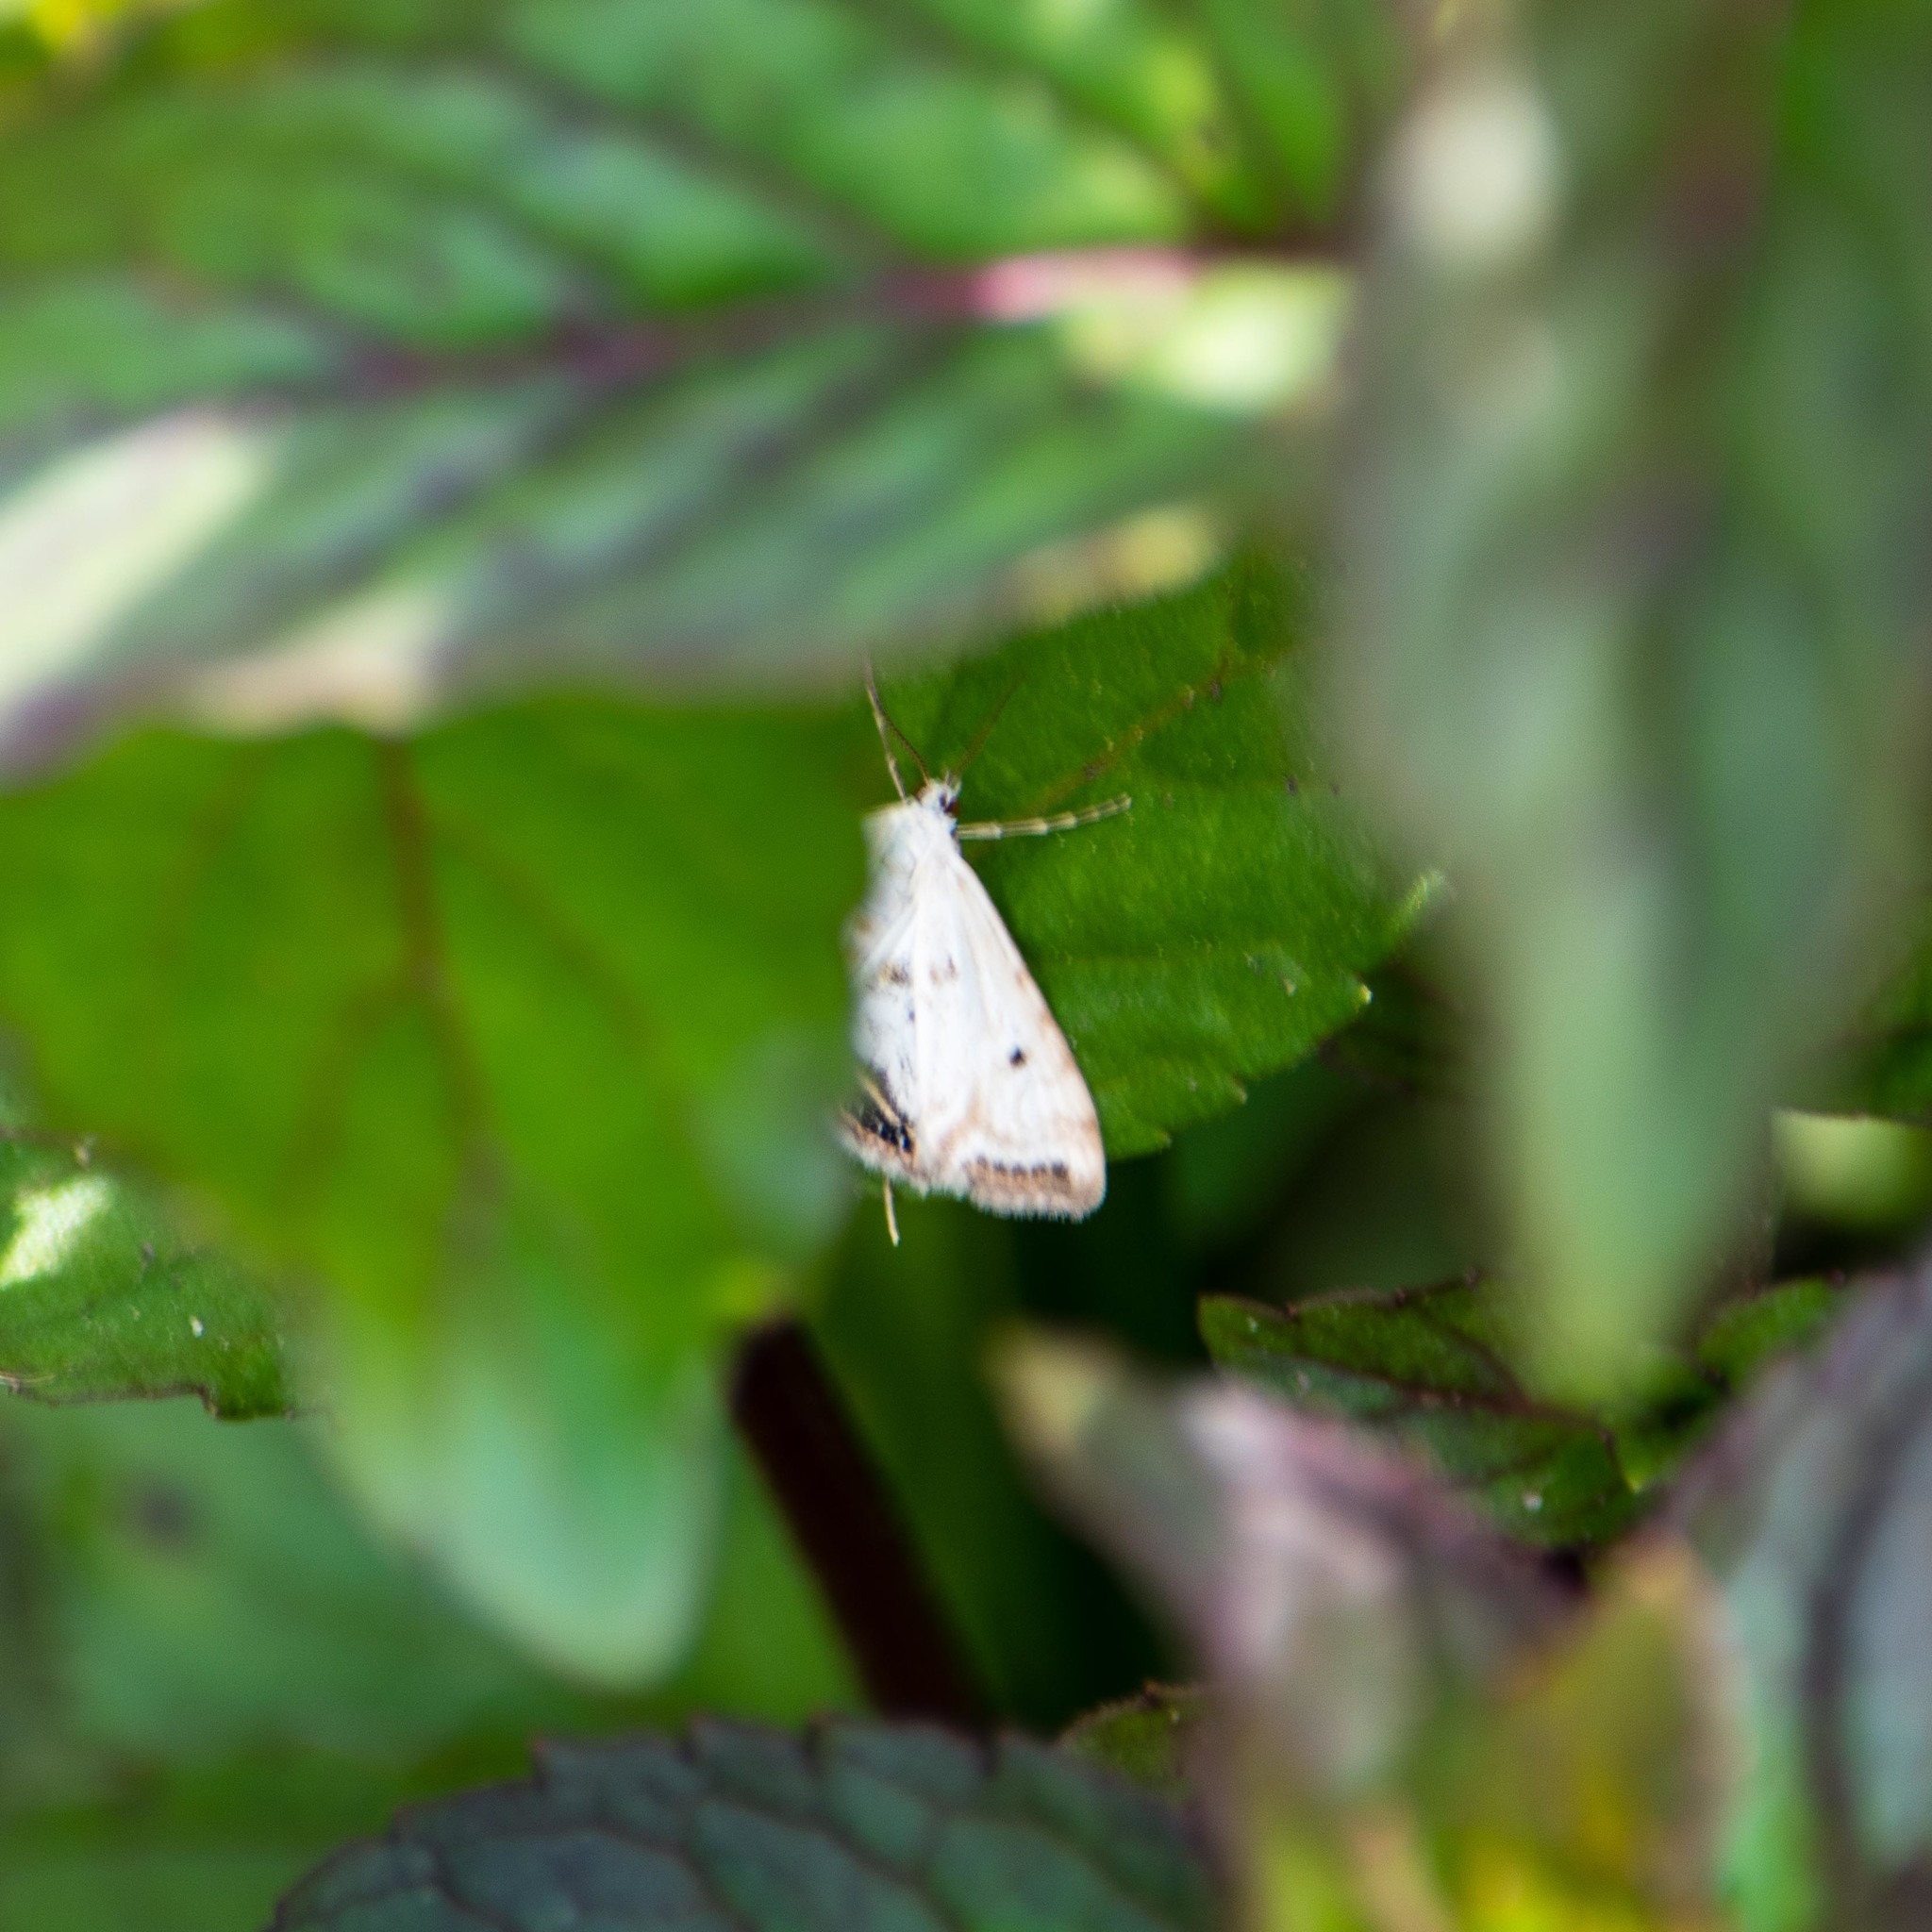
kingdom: Animalia
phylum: Arthropoda
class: Insecta
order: Lepidoptera
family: Crambidae
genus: Cataclysta
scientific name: Cataclysta lemnata
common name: Small china-mark
